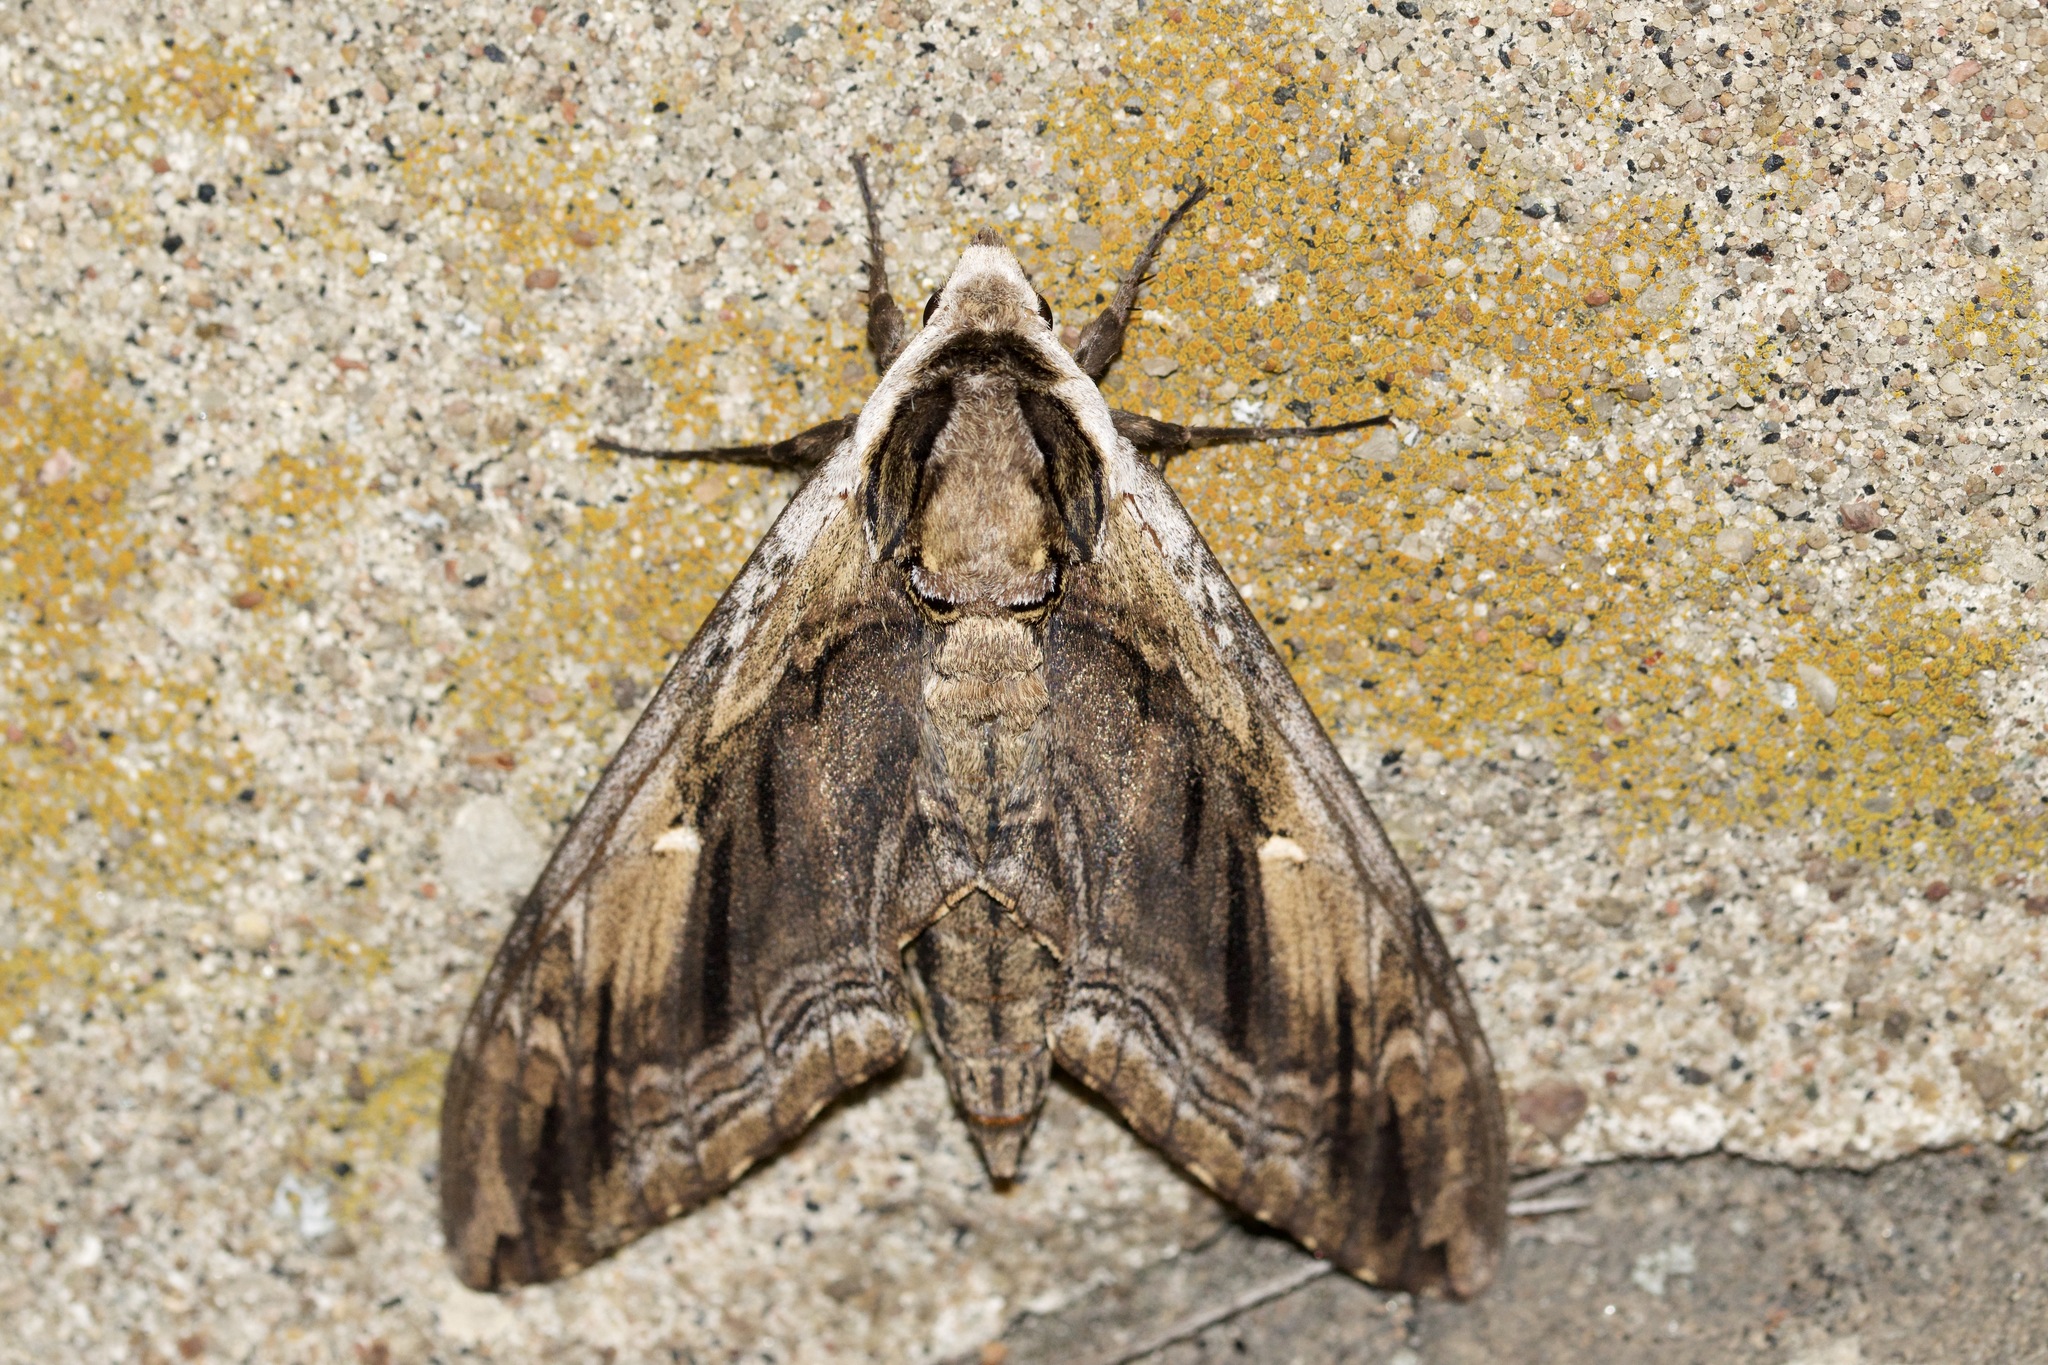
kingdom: Animalia
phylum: Arthropoda
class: Insecta
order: Lepidoptera
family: Sphingidae
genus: Ceratomia
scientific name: Ceratomia amyntor
